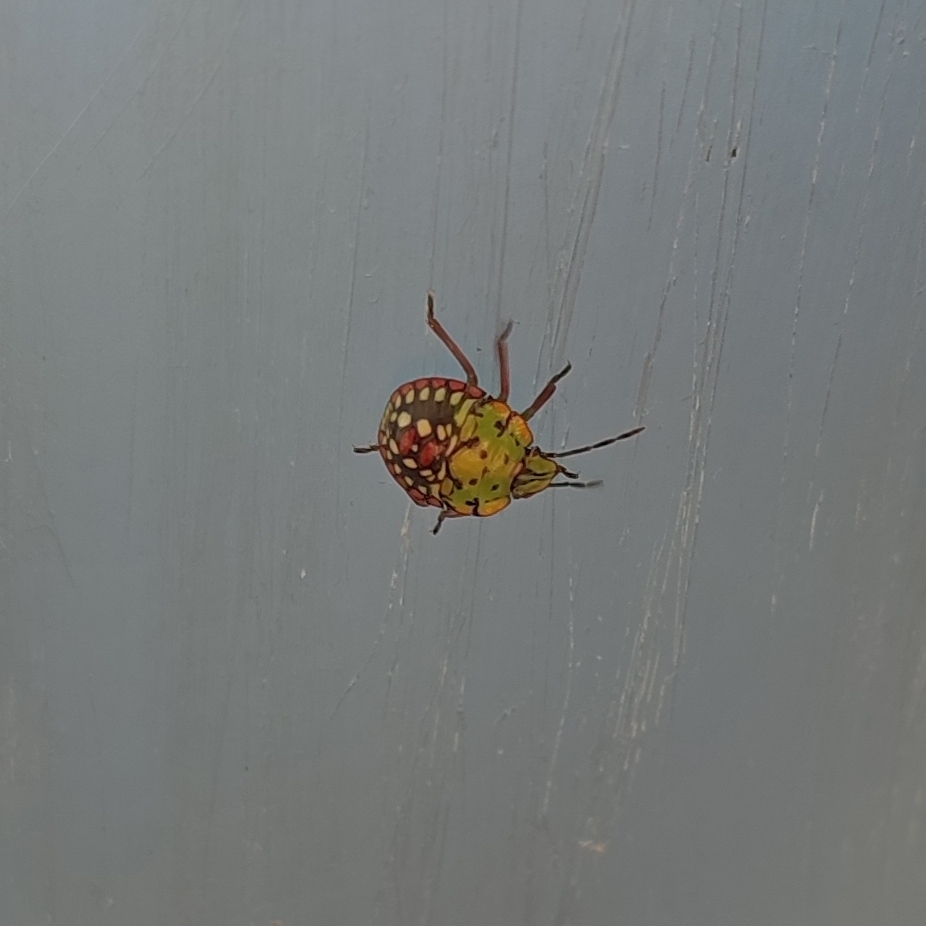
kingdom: Animalia
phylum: Arthropoda
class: Insecta
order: Hemiptera
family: Pentatomidae
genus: Nezara
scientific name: Nezara viridula
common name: Southern green stink bug
